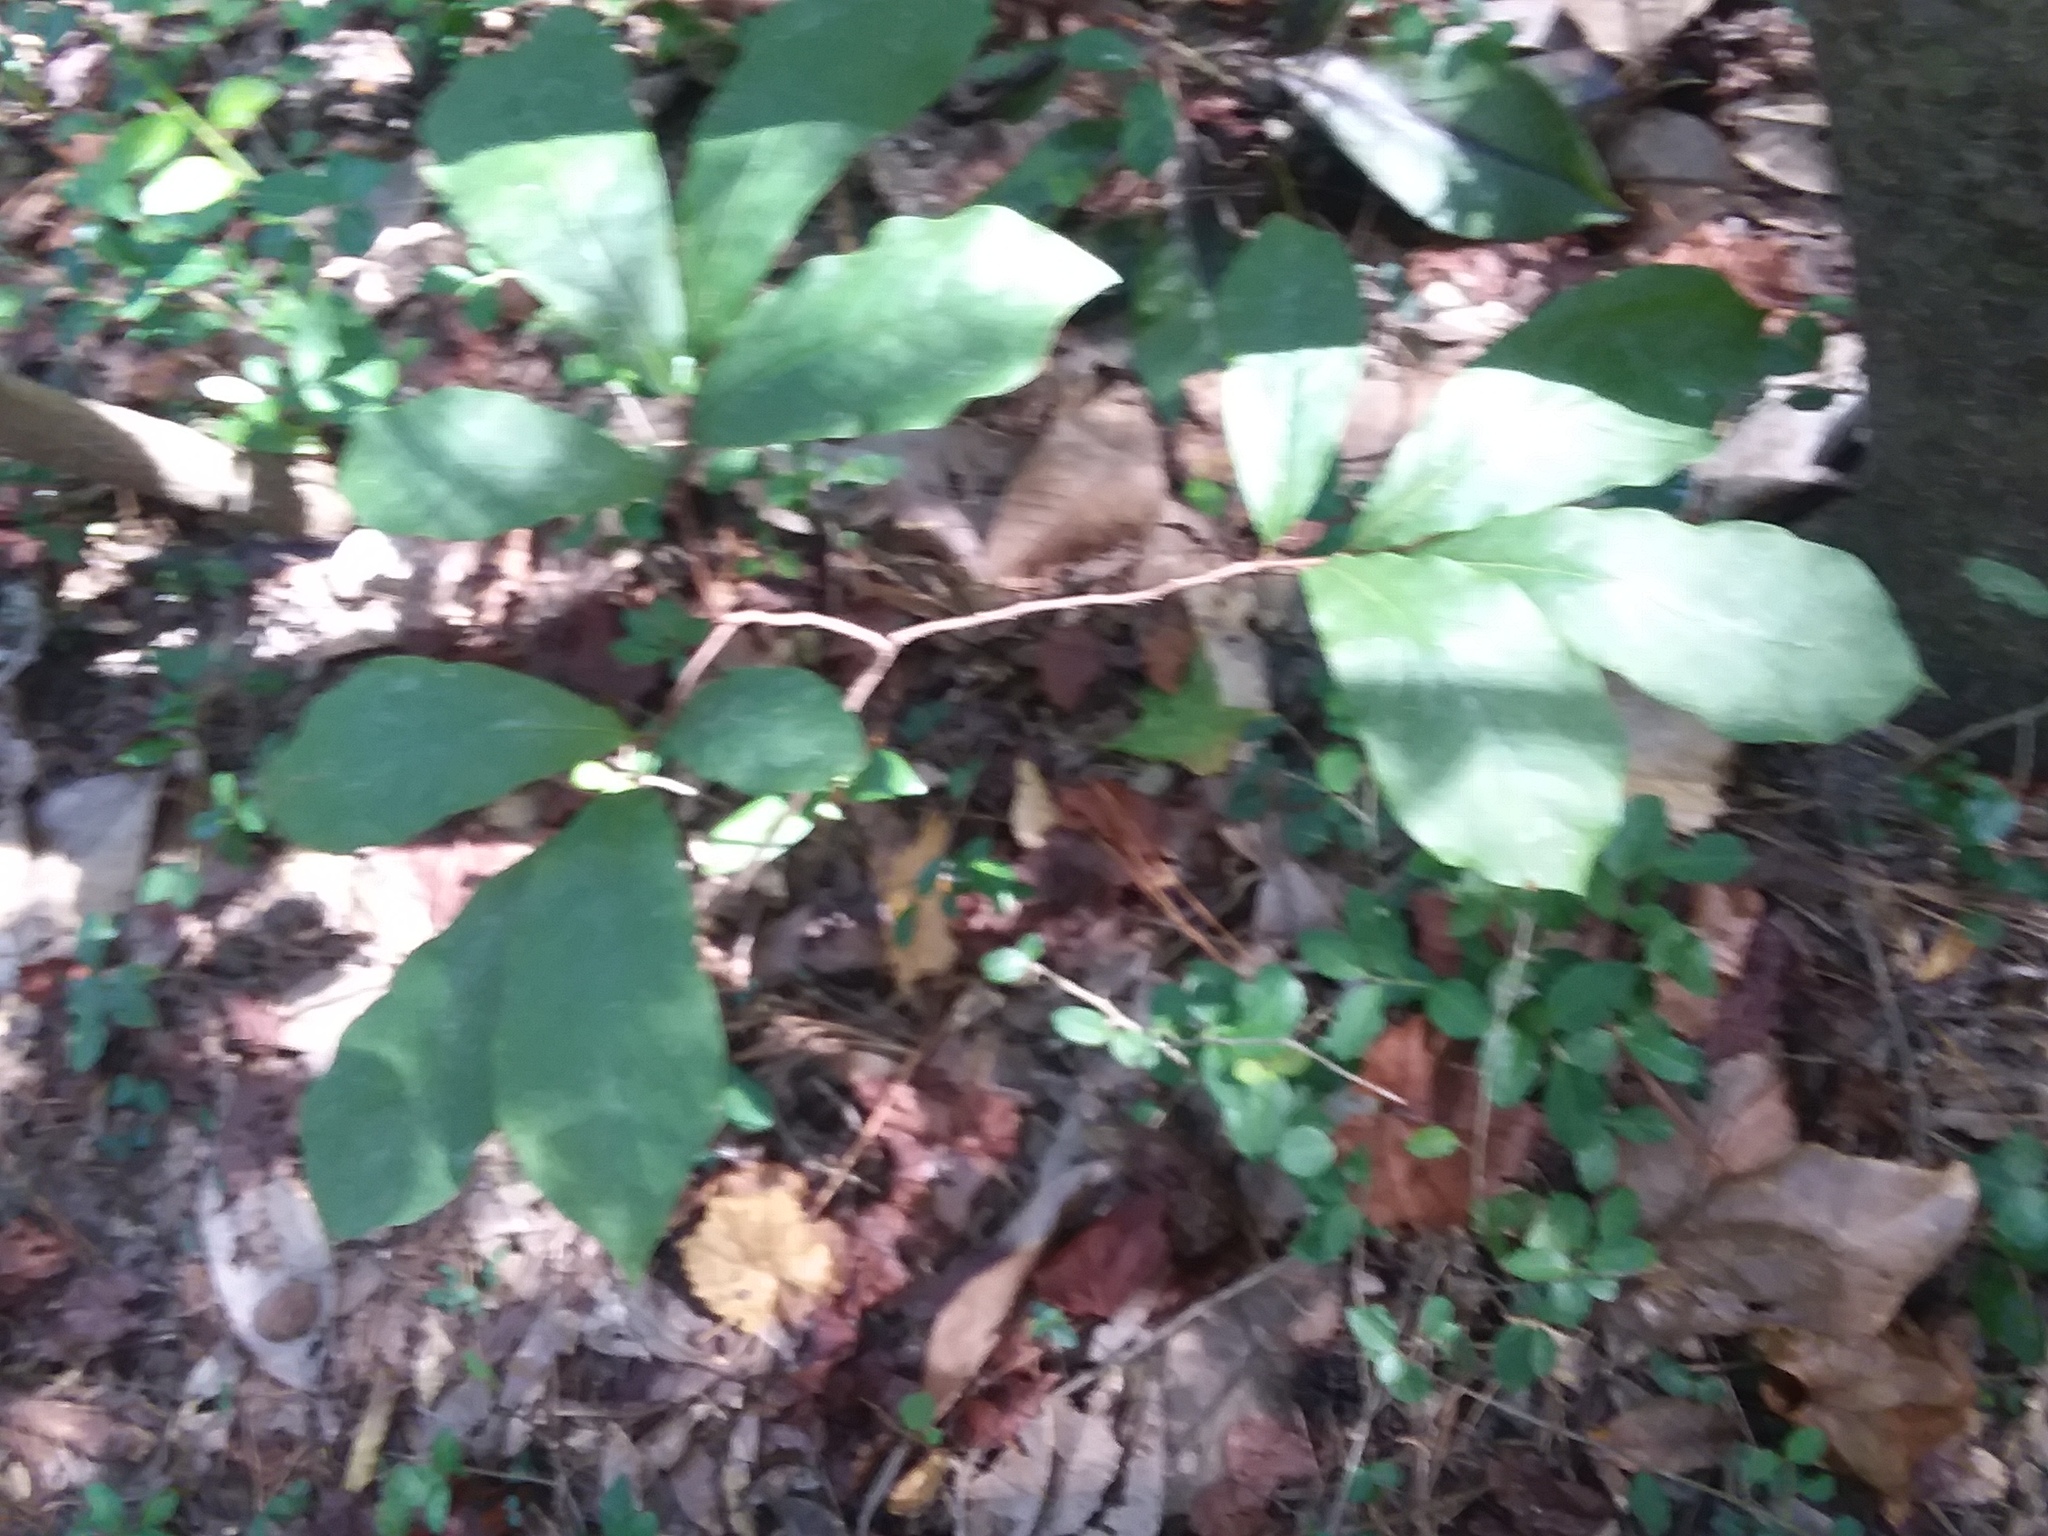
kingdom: Plantae
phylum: Tracheophyta
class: Magnoliopsida
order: Magnoliales
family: Annonaceae
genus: Asimina
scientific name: Asimina parviflora
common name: Dwarf pawpaw
